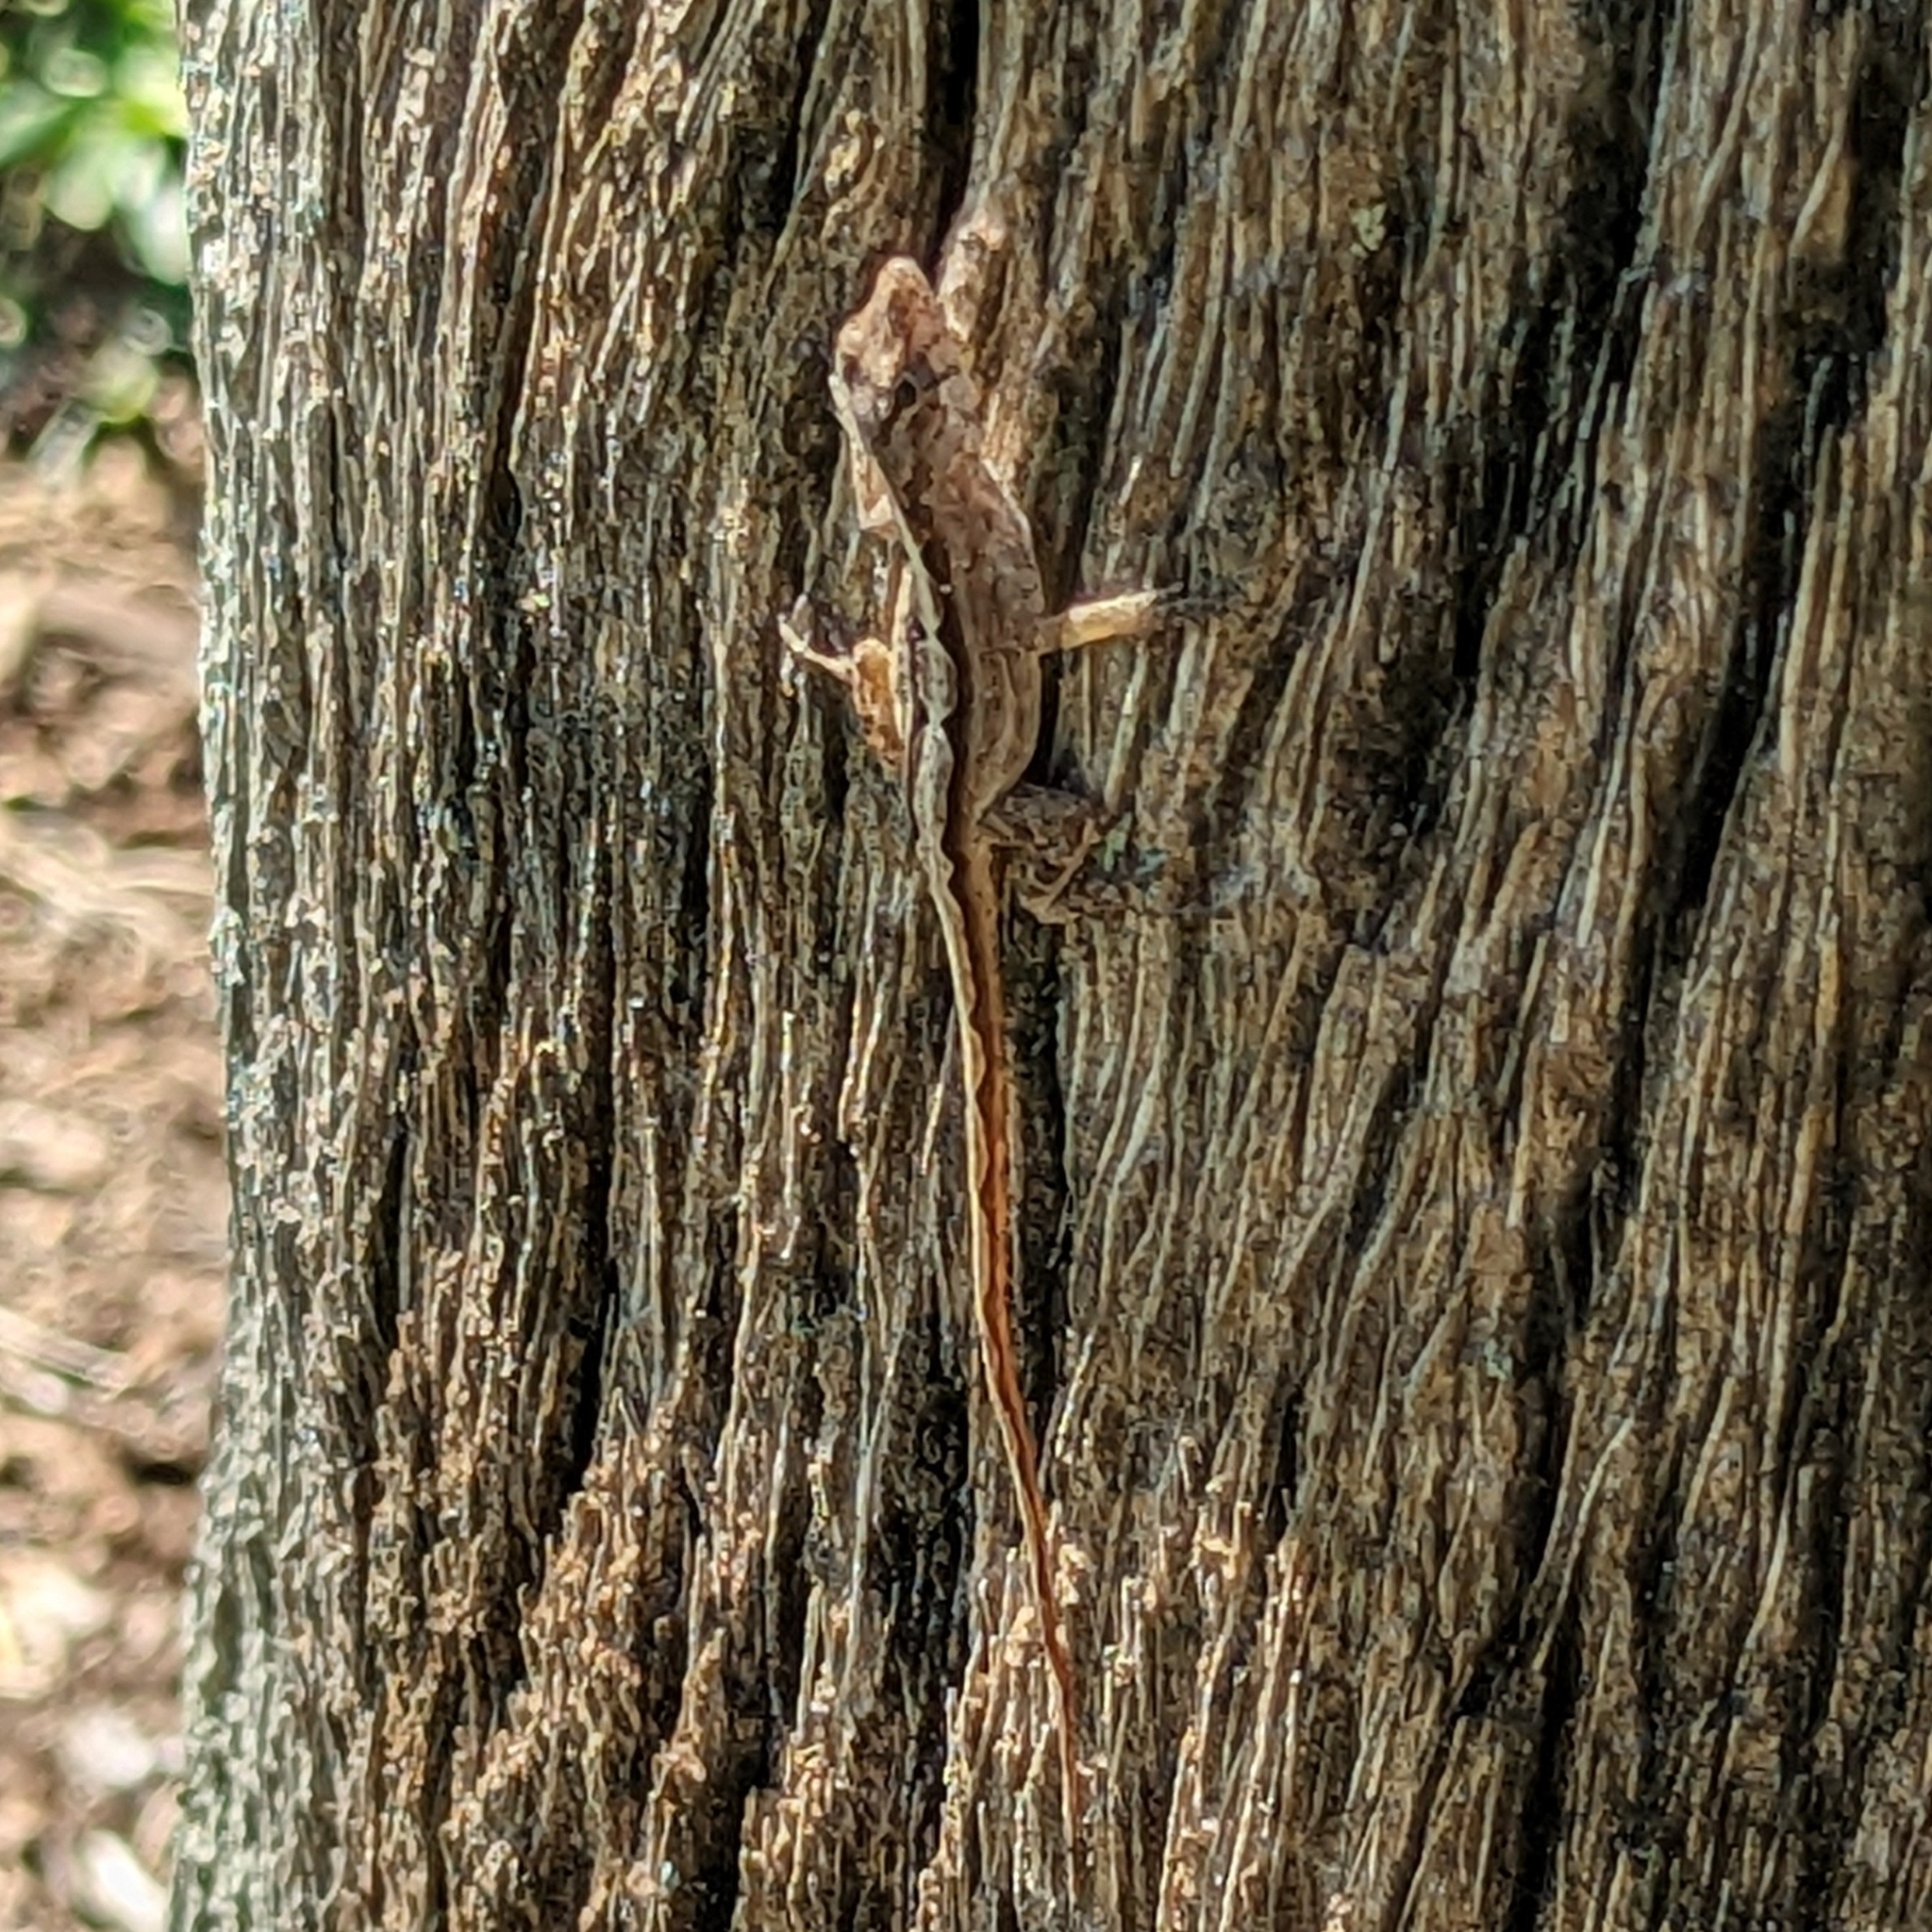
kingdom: Animalia
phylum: Chordata
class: Squamata
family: Dactyloidae
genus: Anolis
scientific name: Anolis sagrei
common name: Brown anole
